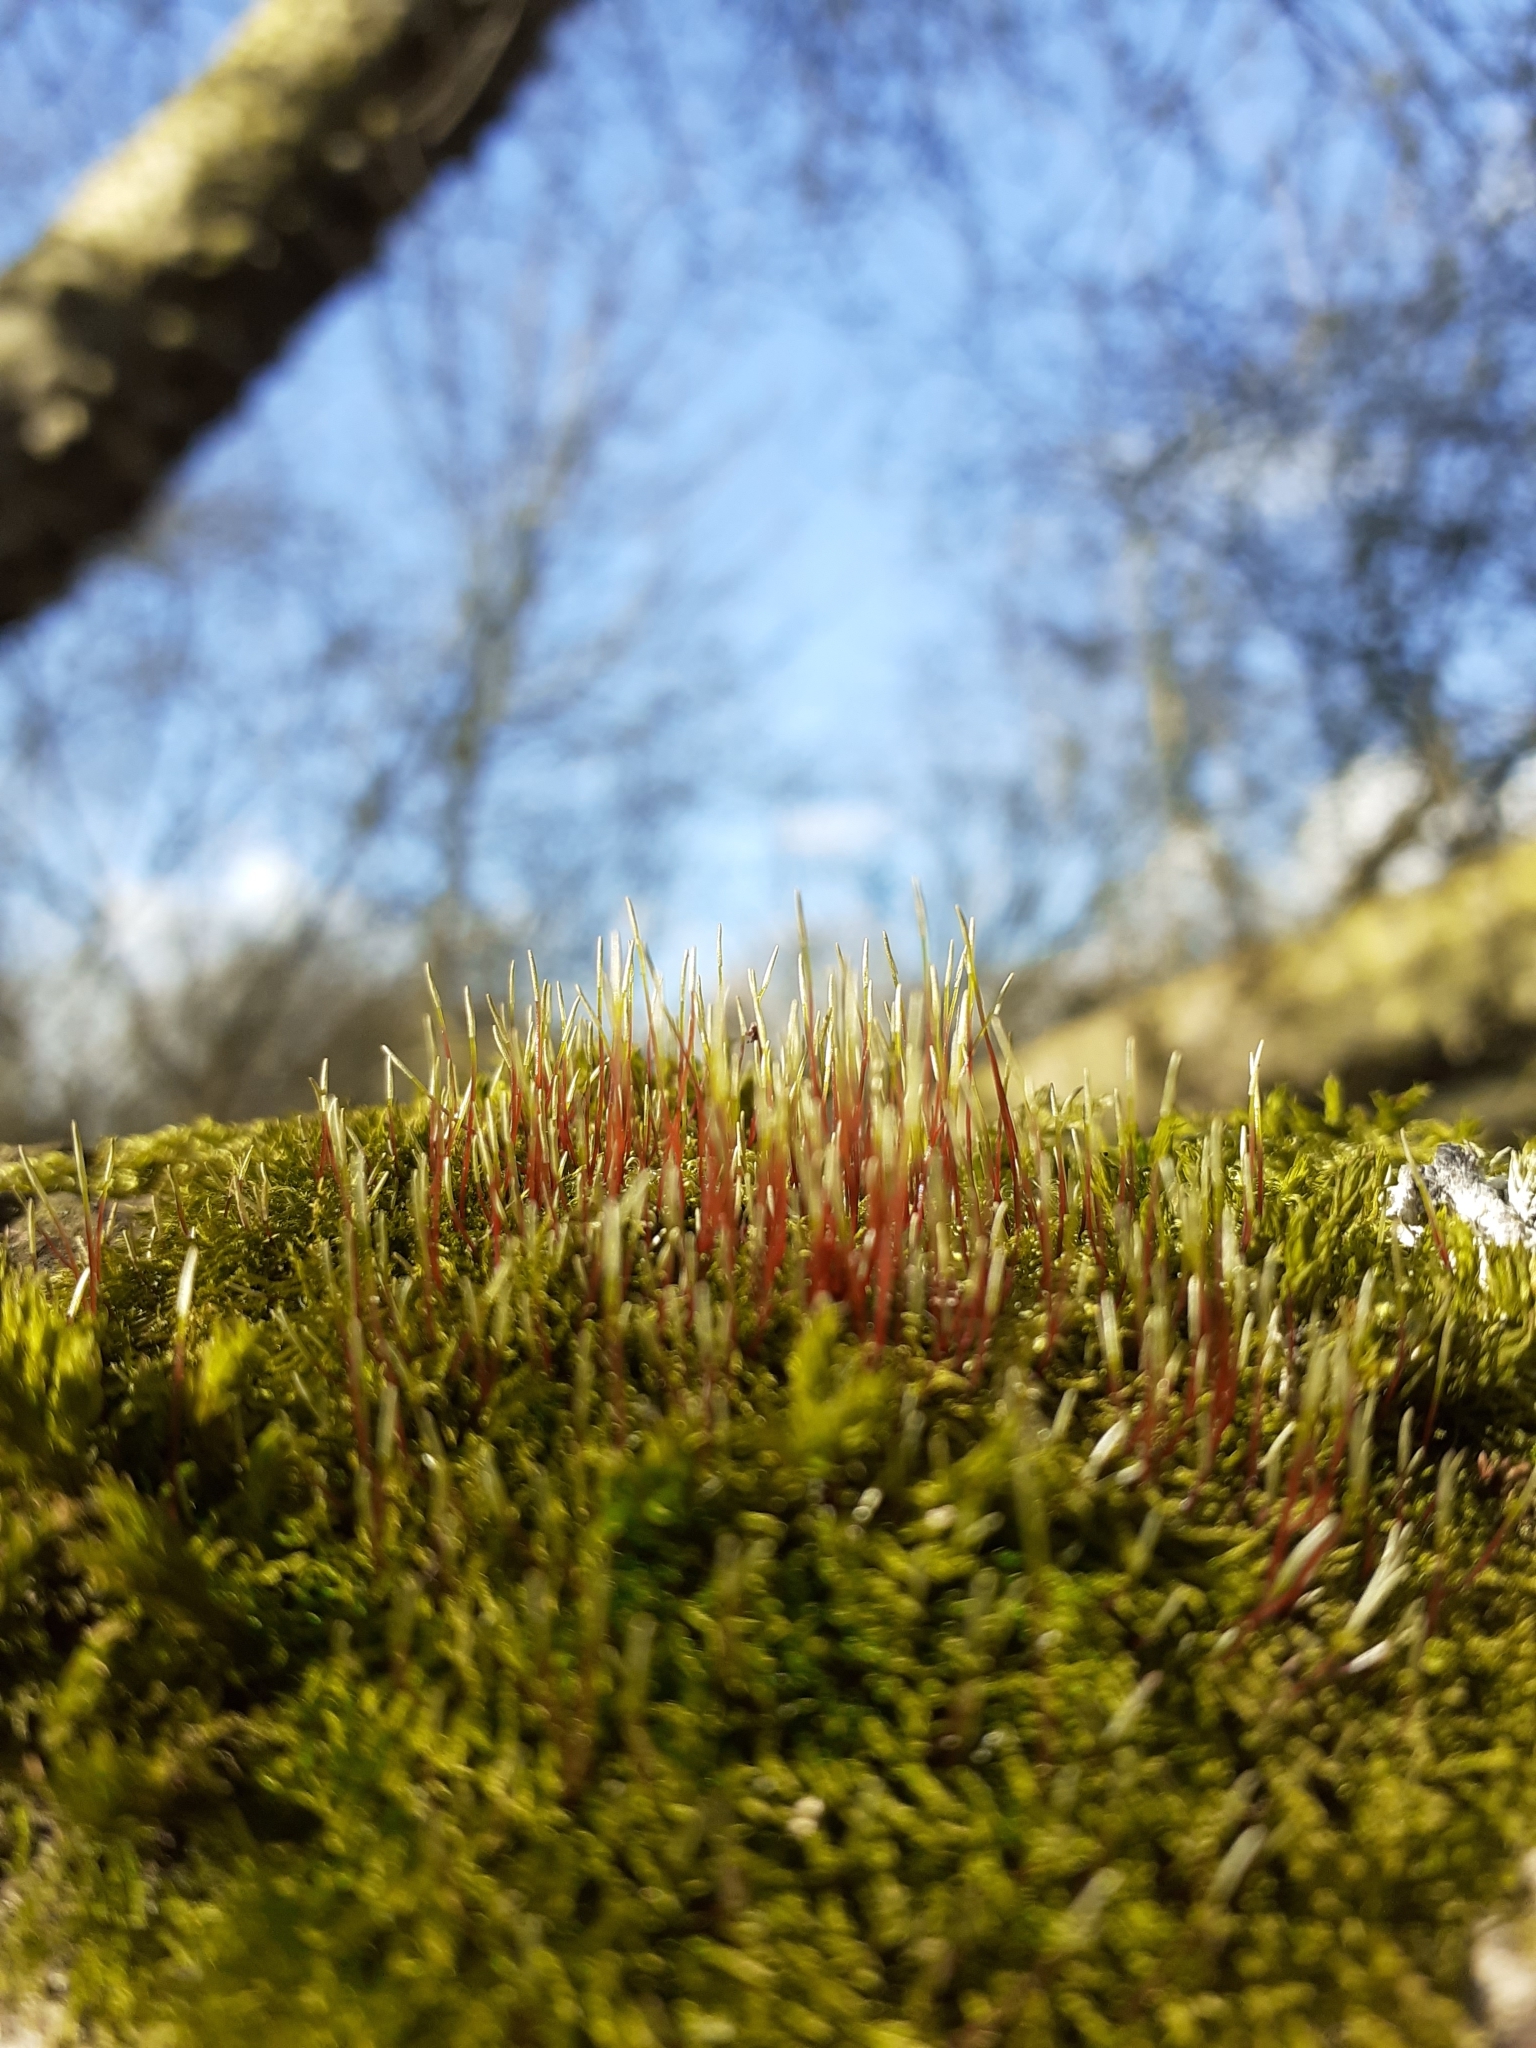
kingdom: Plantae
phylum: Bryophyta
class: Bryopsida
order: Hypnales
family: Amblystegiaceae
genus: Amblystegium
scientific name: Amblystegium serpens
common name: Jurkatzka's feather moss
